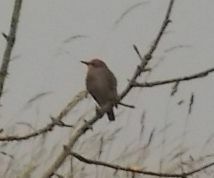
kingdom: Animalia
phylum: Chordata
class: Aves
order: Passeriformes
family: Sturnidae
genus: Sturnus
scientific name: Sturnus vulgaris
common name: Common starling
